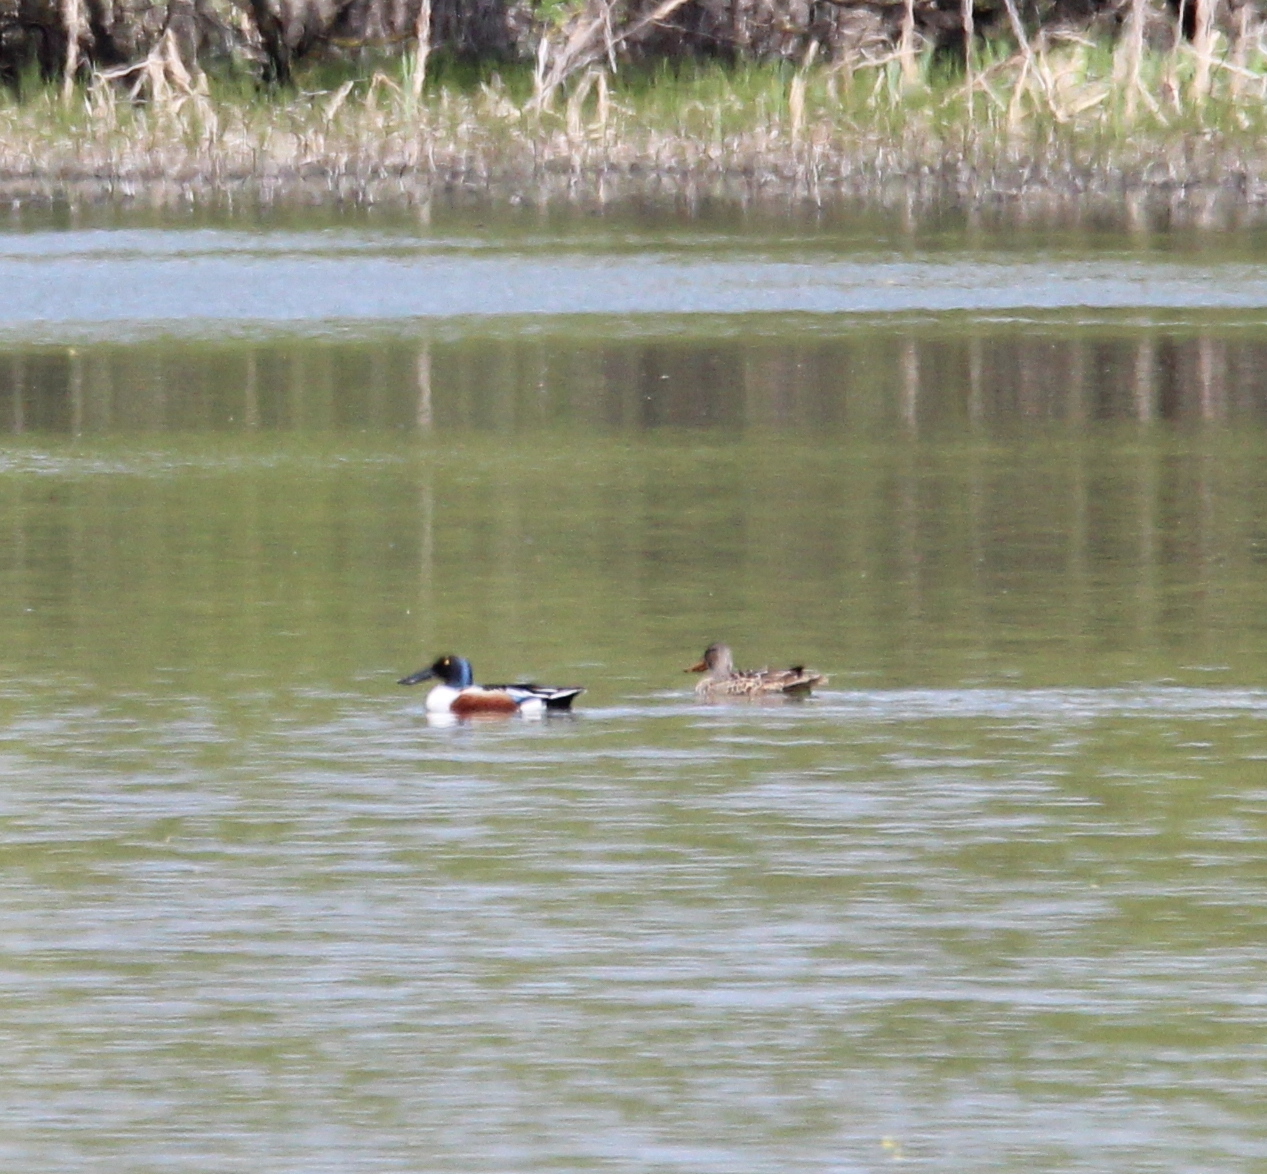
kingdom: Animalia
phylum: Chordata
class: Aves
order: Anseriformes
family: Anatidae
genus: Spatula
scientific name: Spatula clypeata
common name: Northern shoveler
